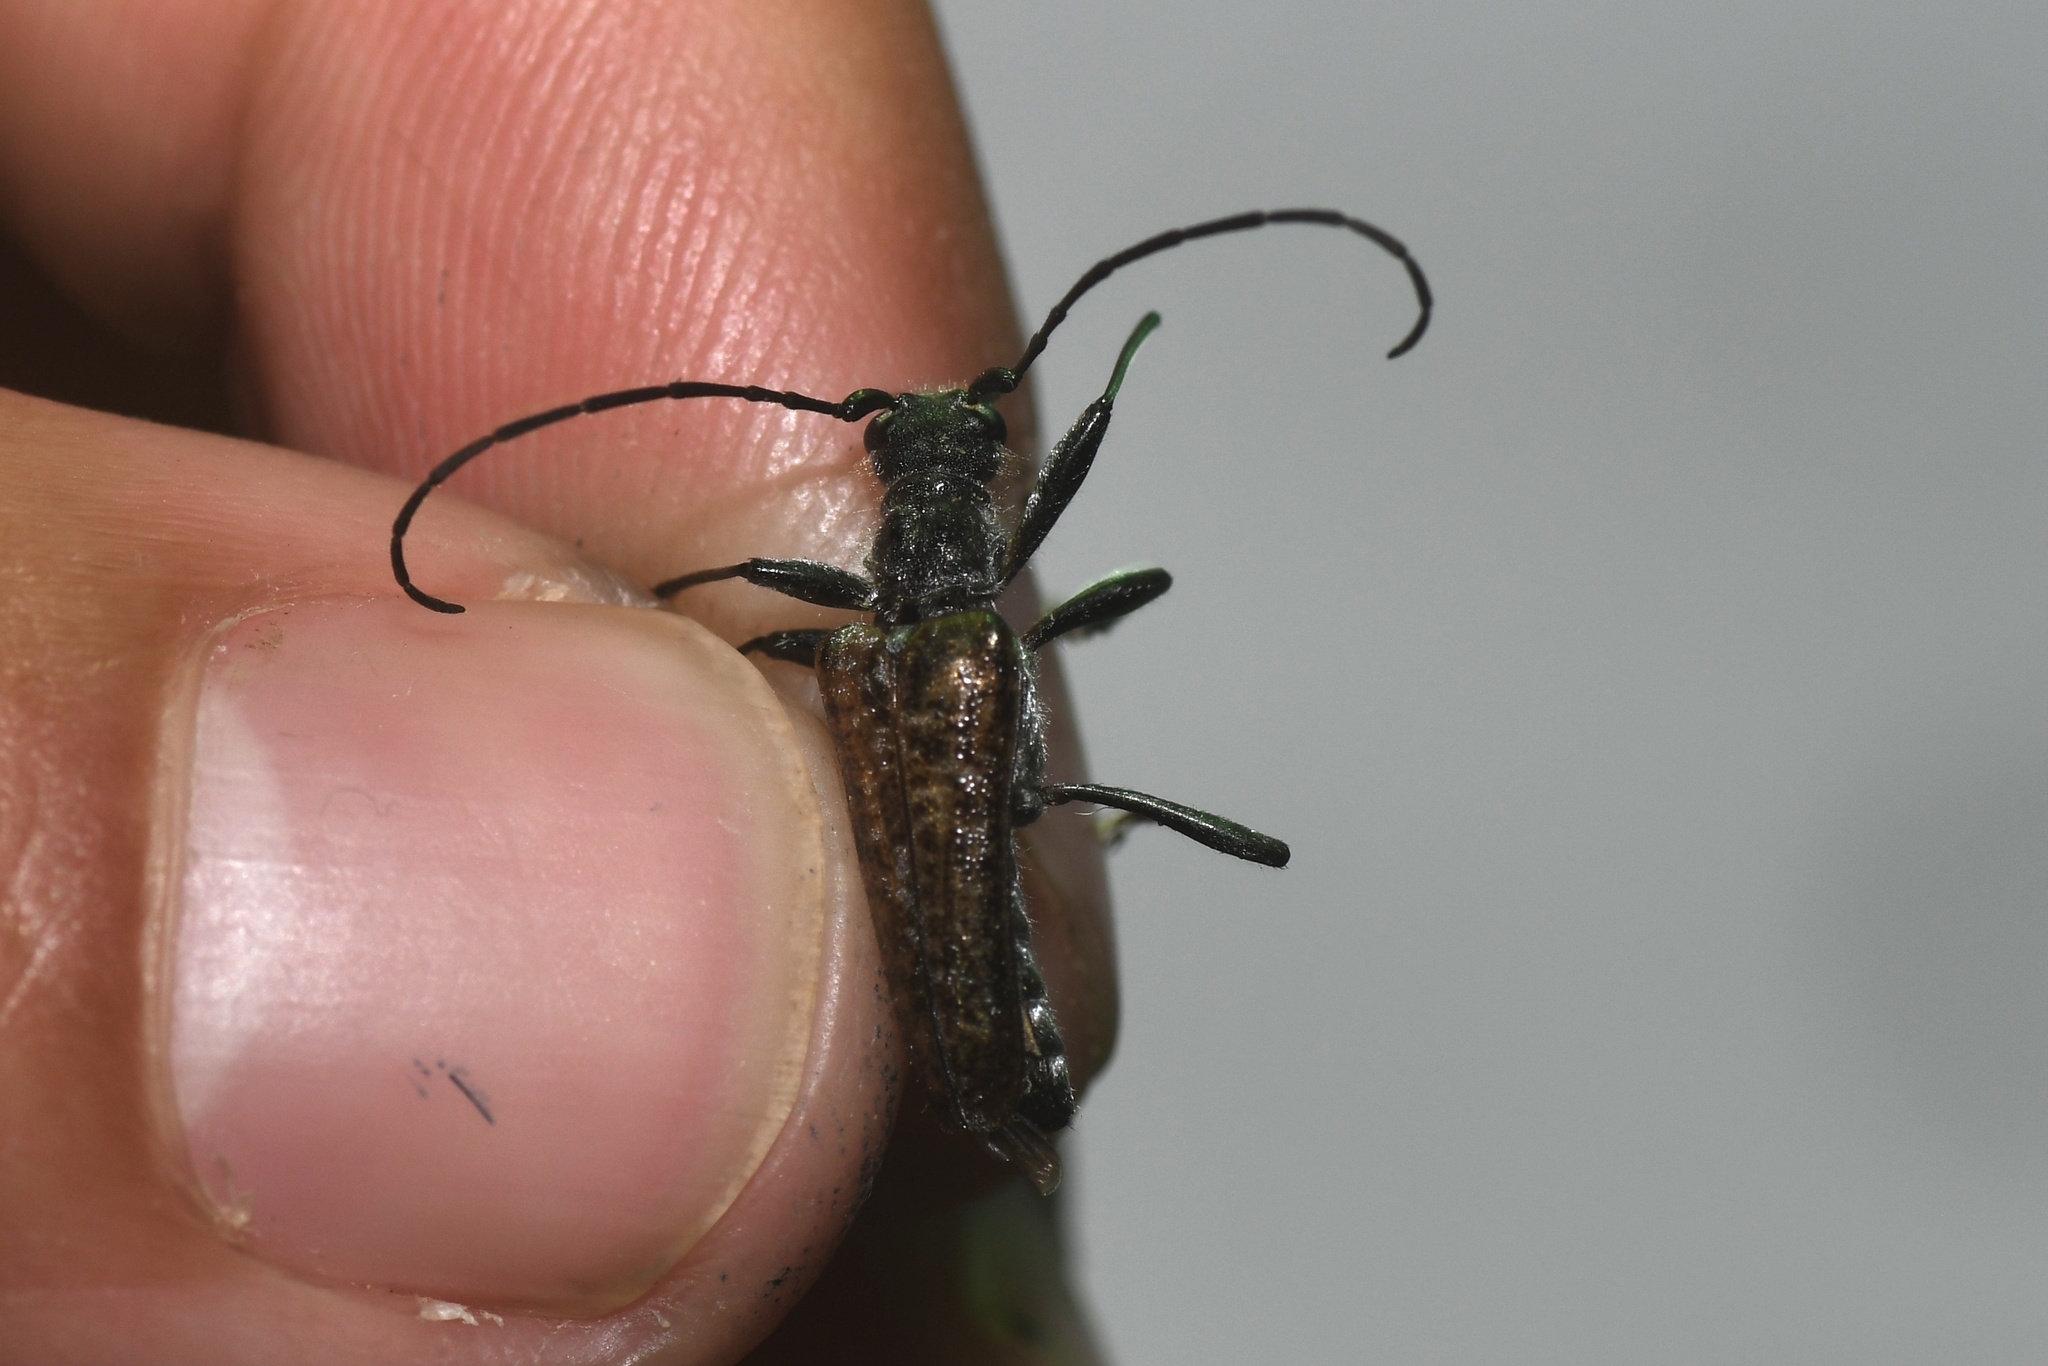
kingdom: Animalia
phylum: Arthropoda
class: Insecta
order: Coleoptera
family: Cerambycidae
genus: Anthophylax
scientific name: Anthophylax attenuatus
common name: Mottled longhorned beetle
